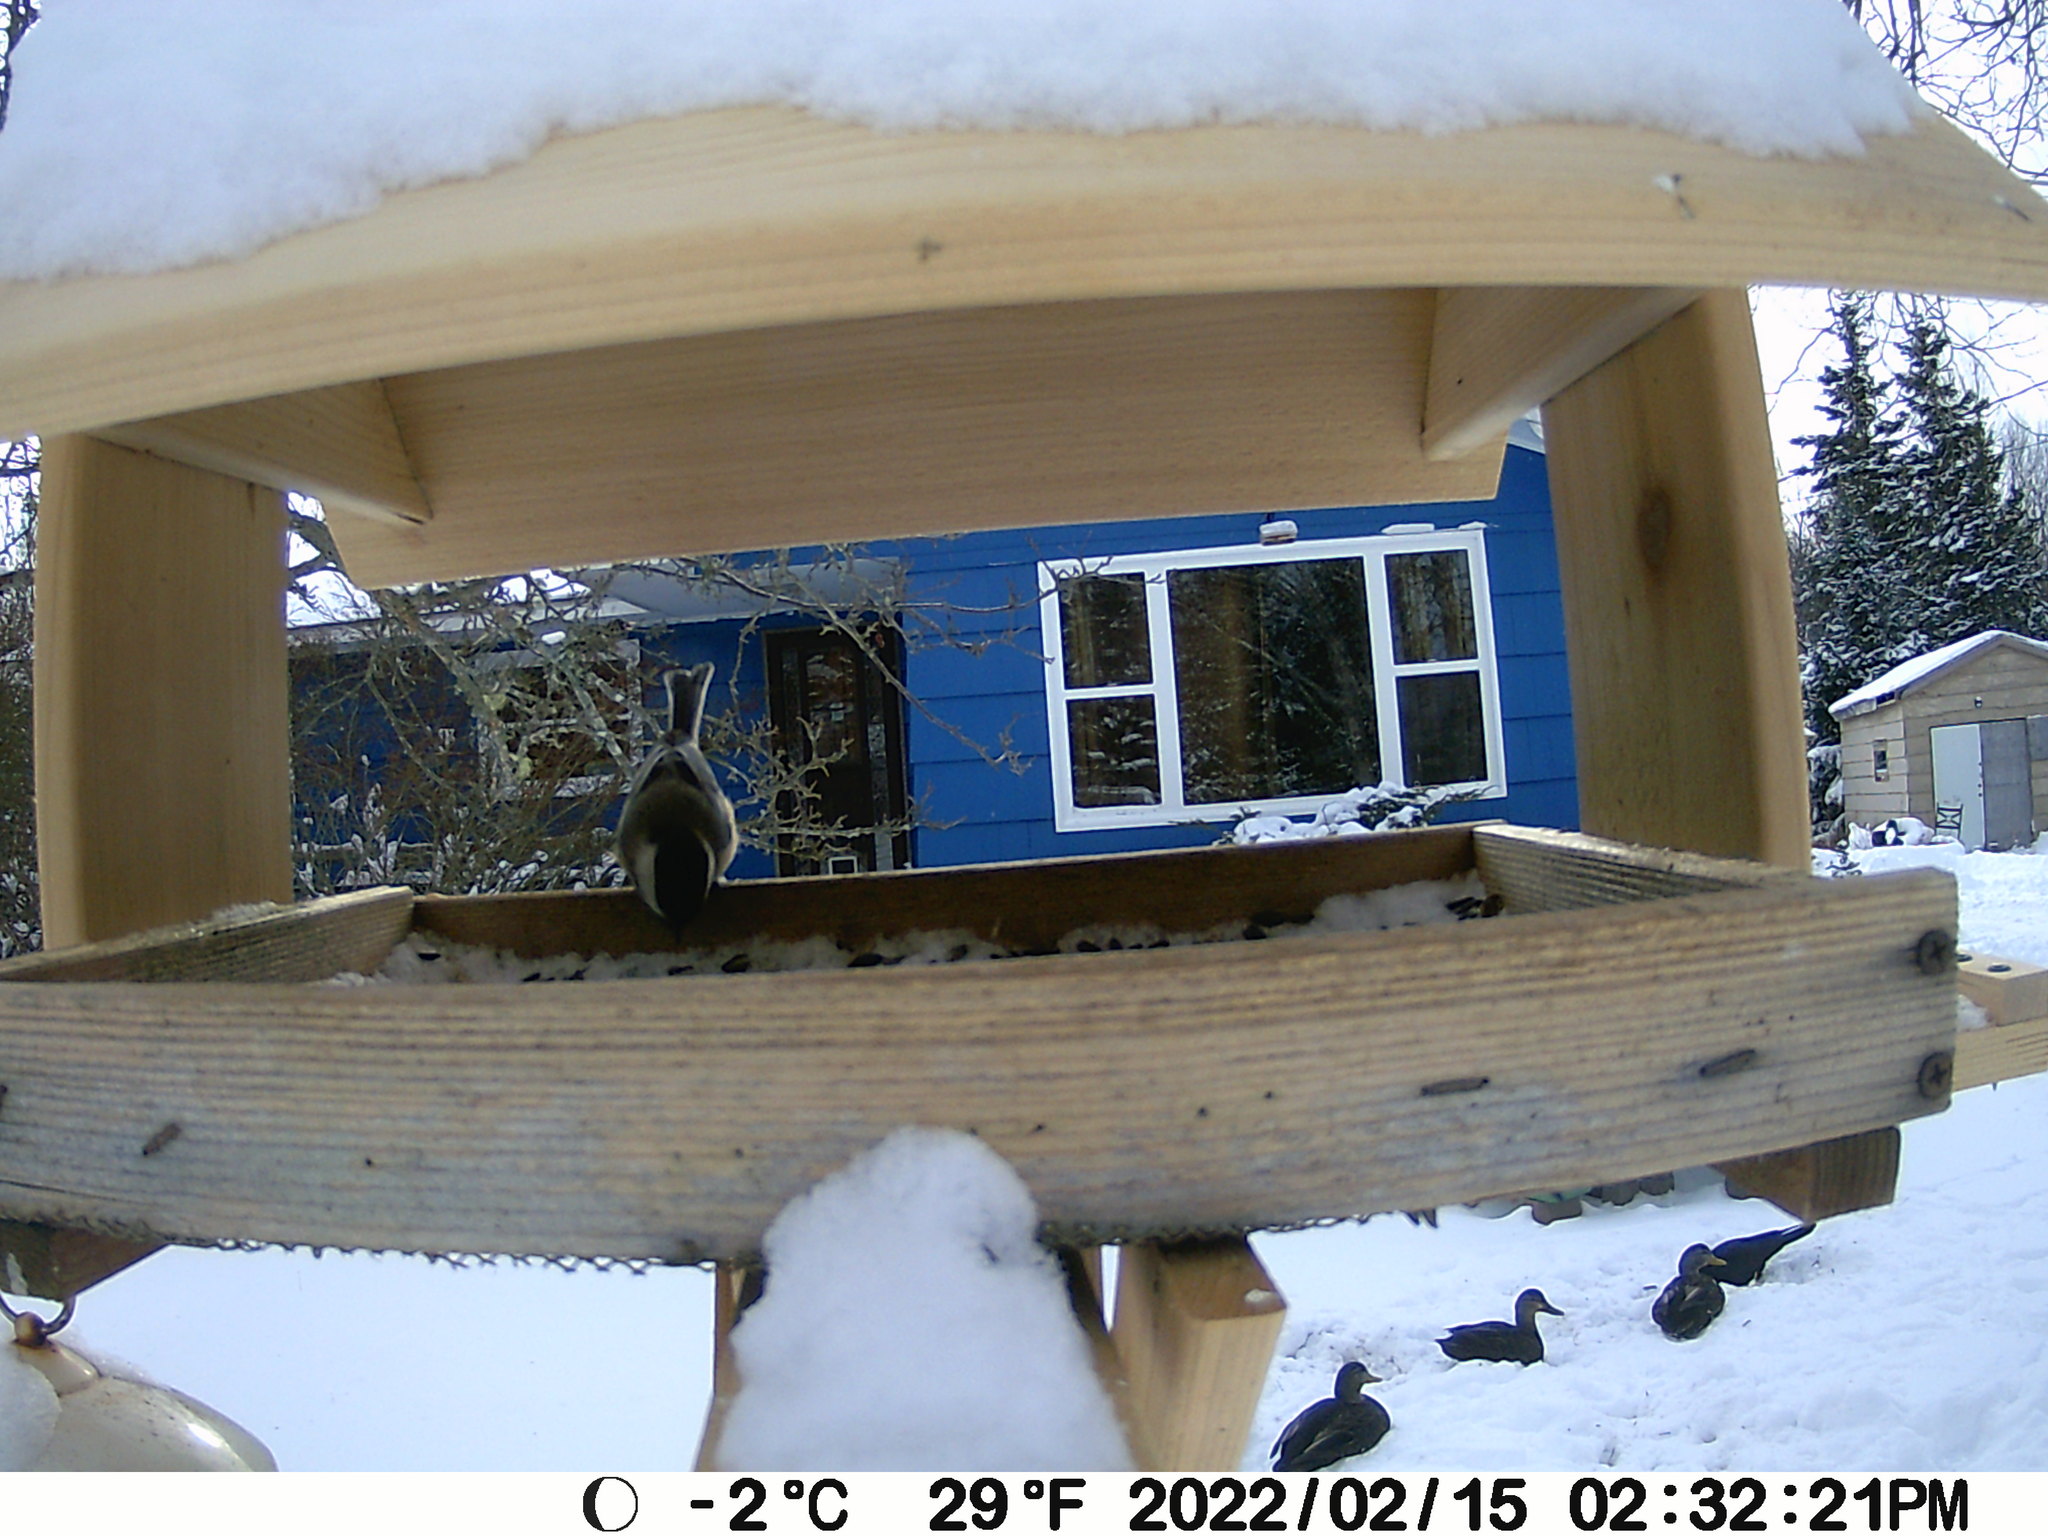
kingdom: Animalia
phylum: Chordata
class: Aves
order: Anseriformes
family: Anatidae
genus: Anas
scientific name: Anas rubripes
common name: American black duck
